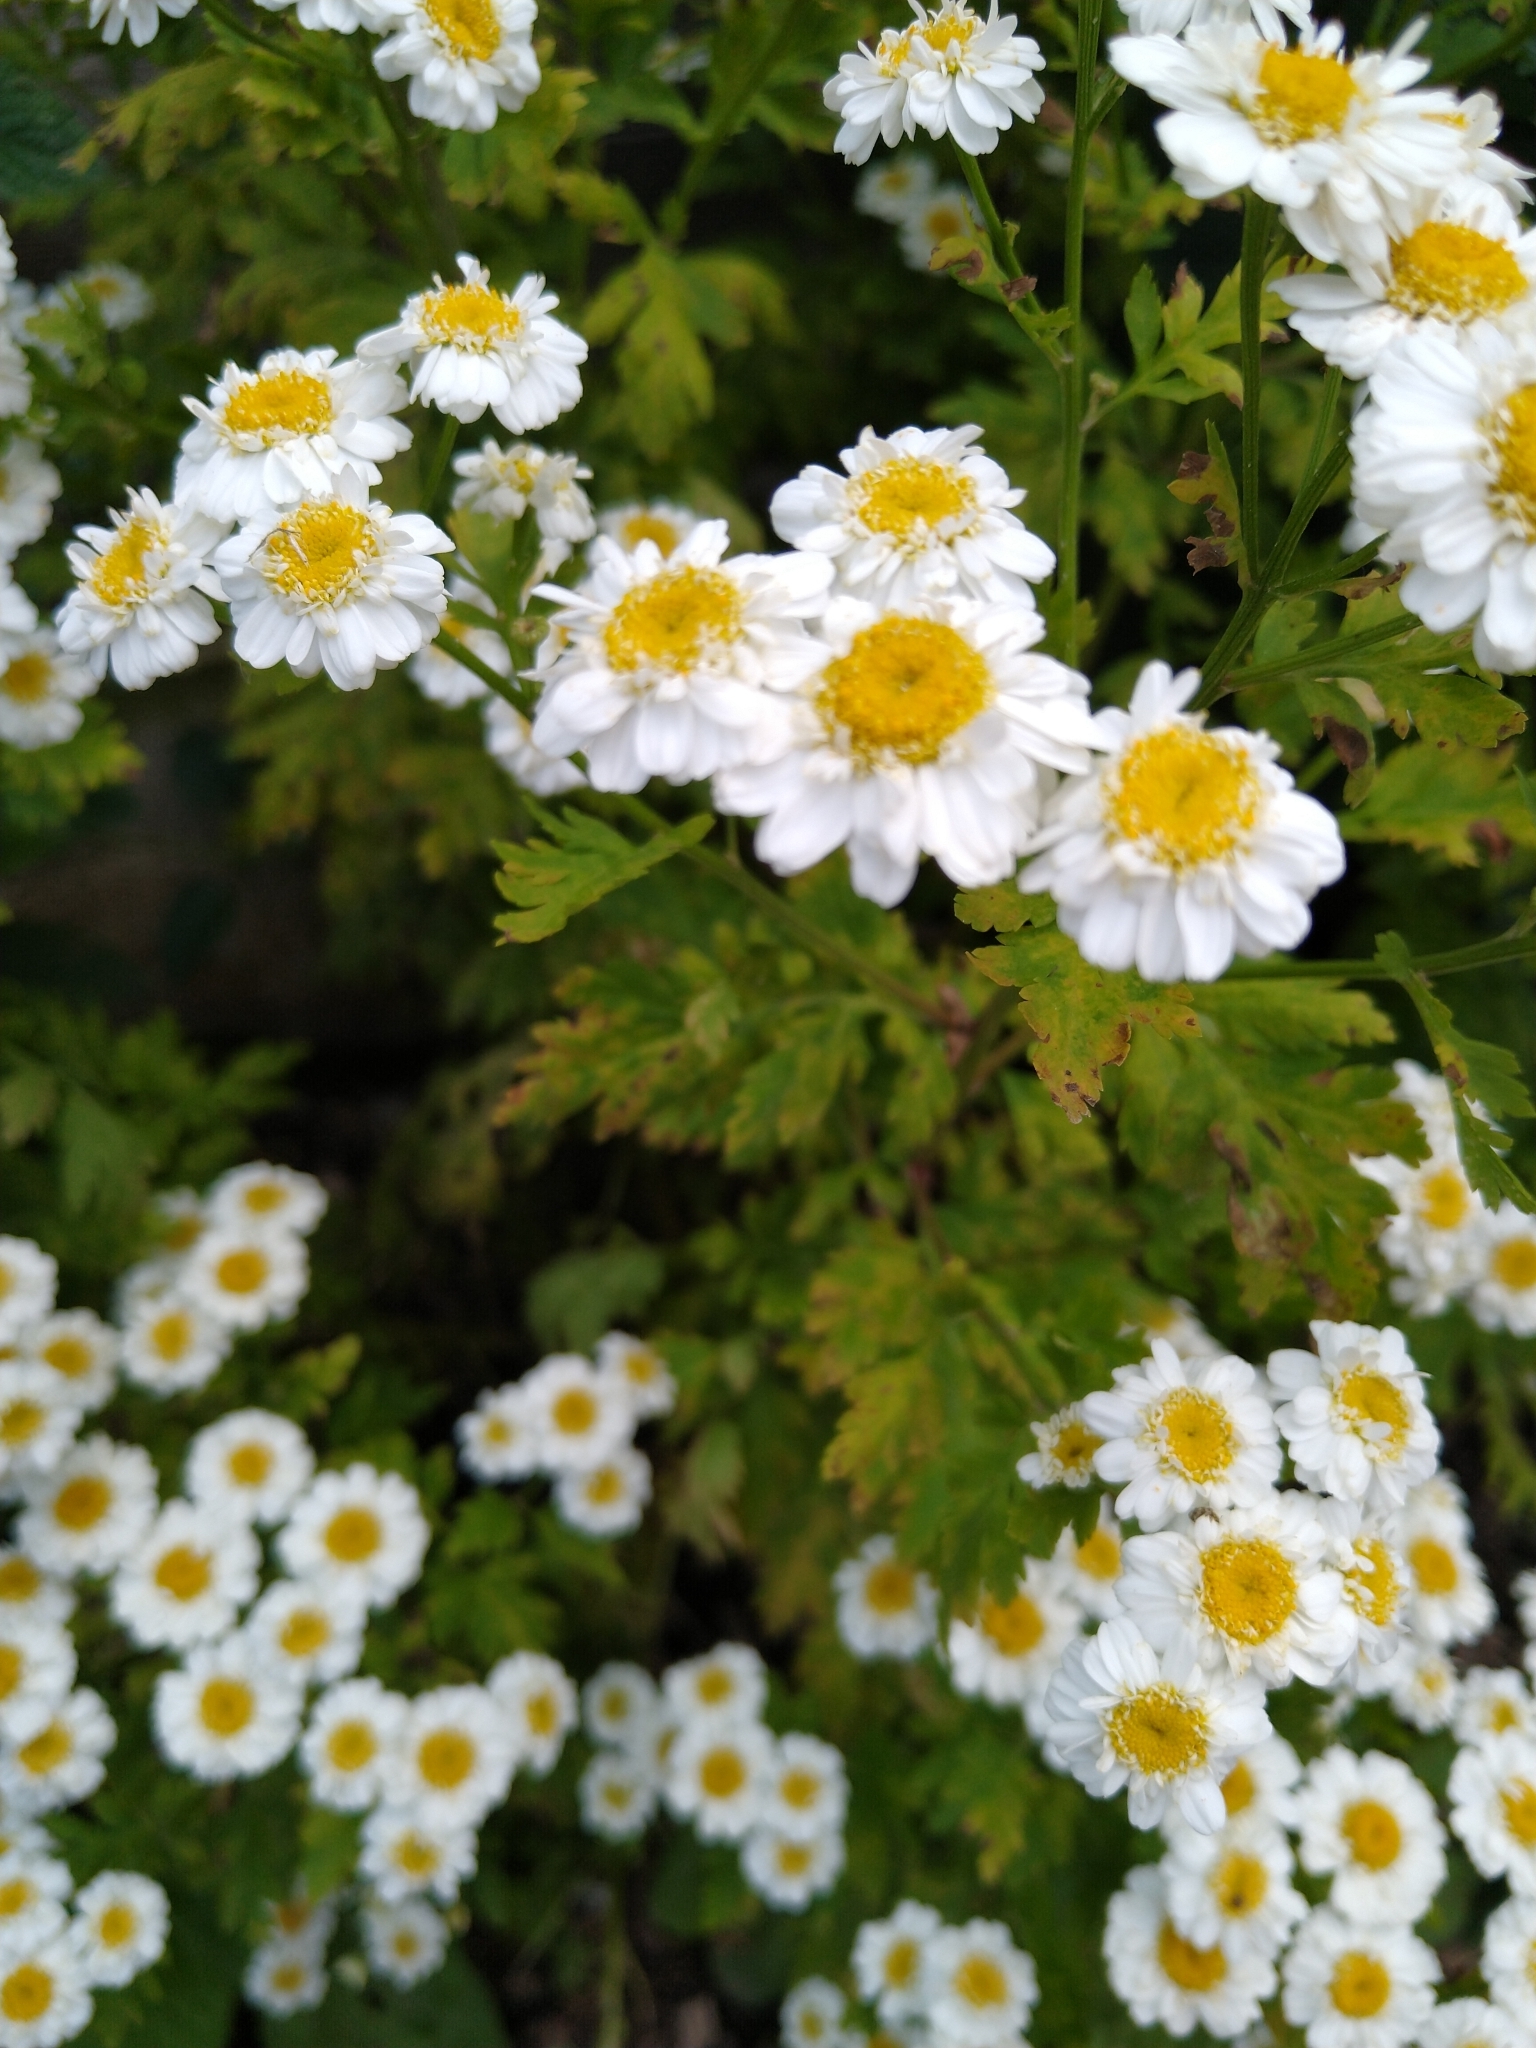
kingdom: Plantae
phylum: Tracheophyta
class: Magnoliopsida
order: Asterales
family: Asteraceae
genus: Tanacetum
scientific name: Tanacetum parthenium
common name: Feverfew
